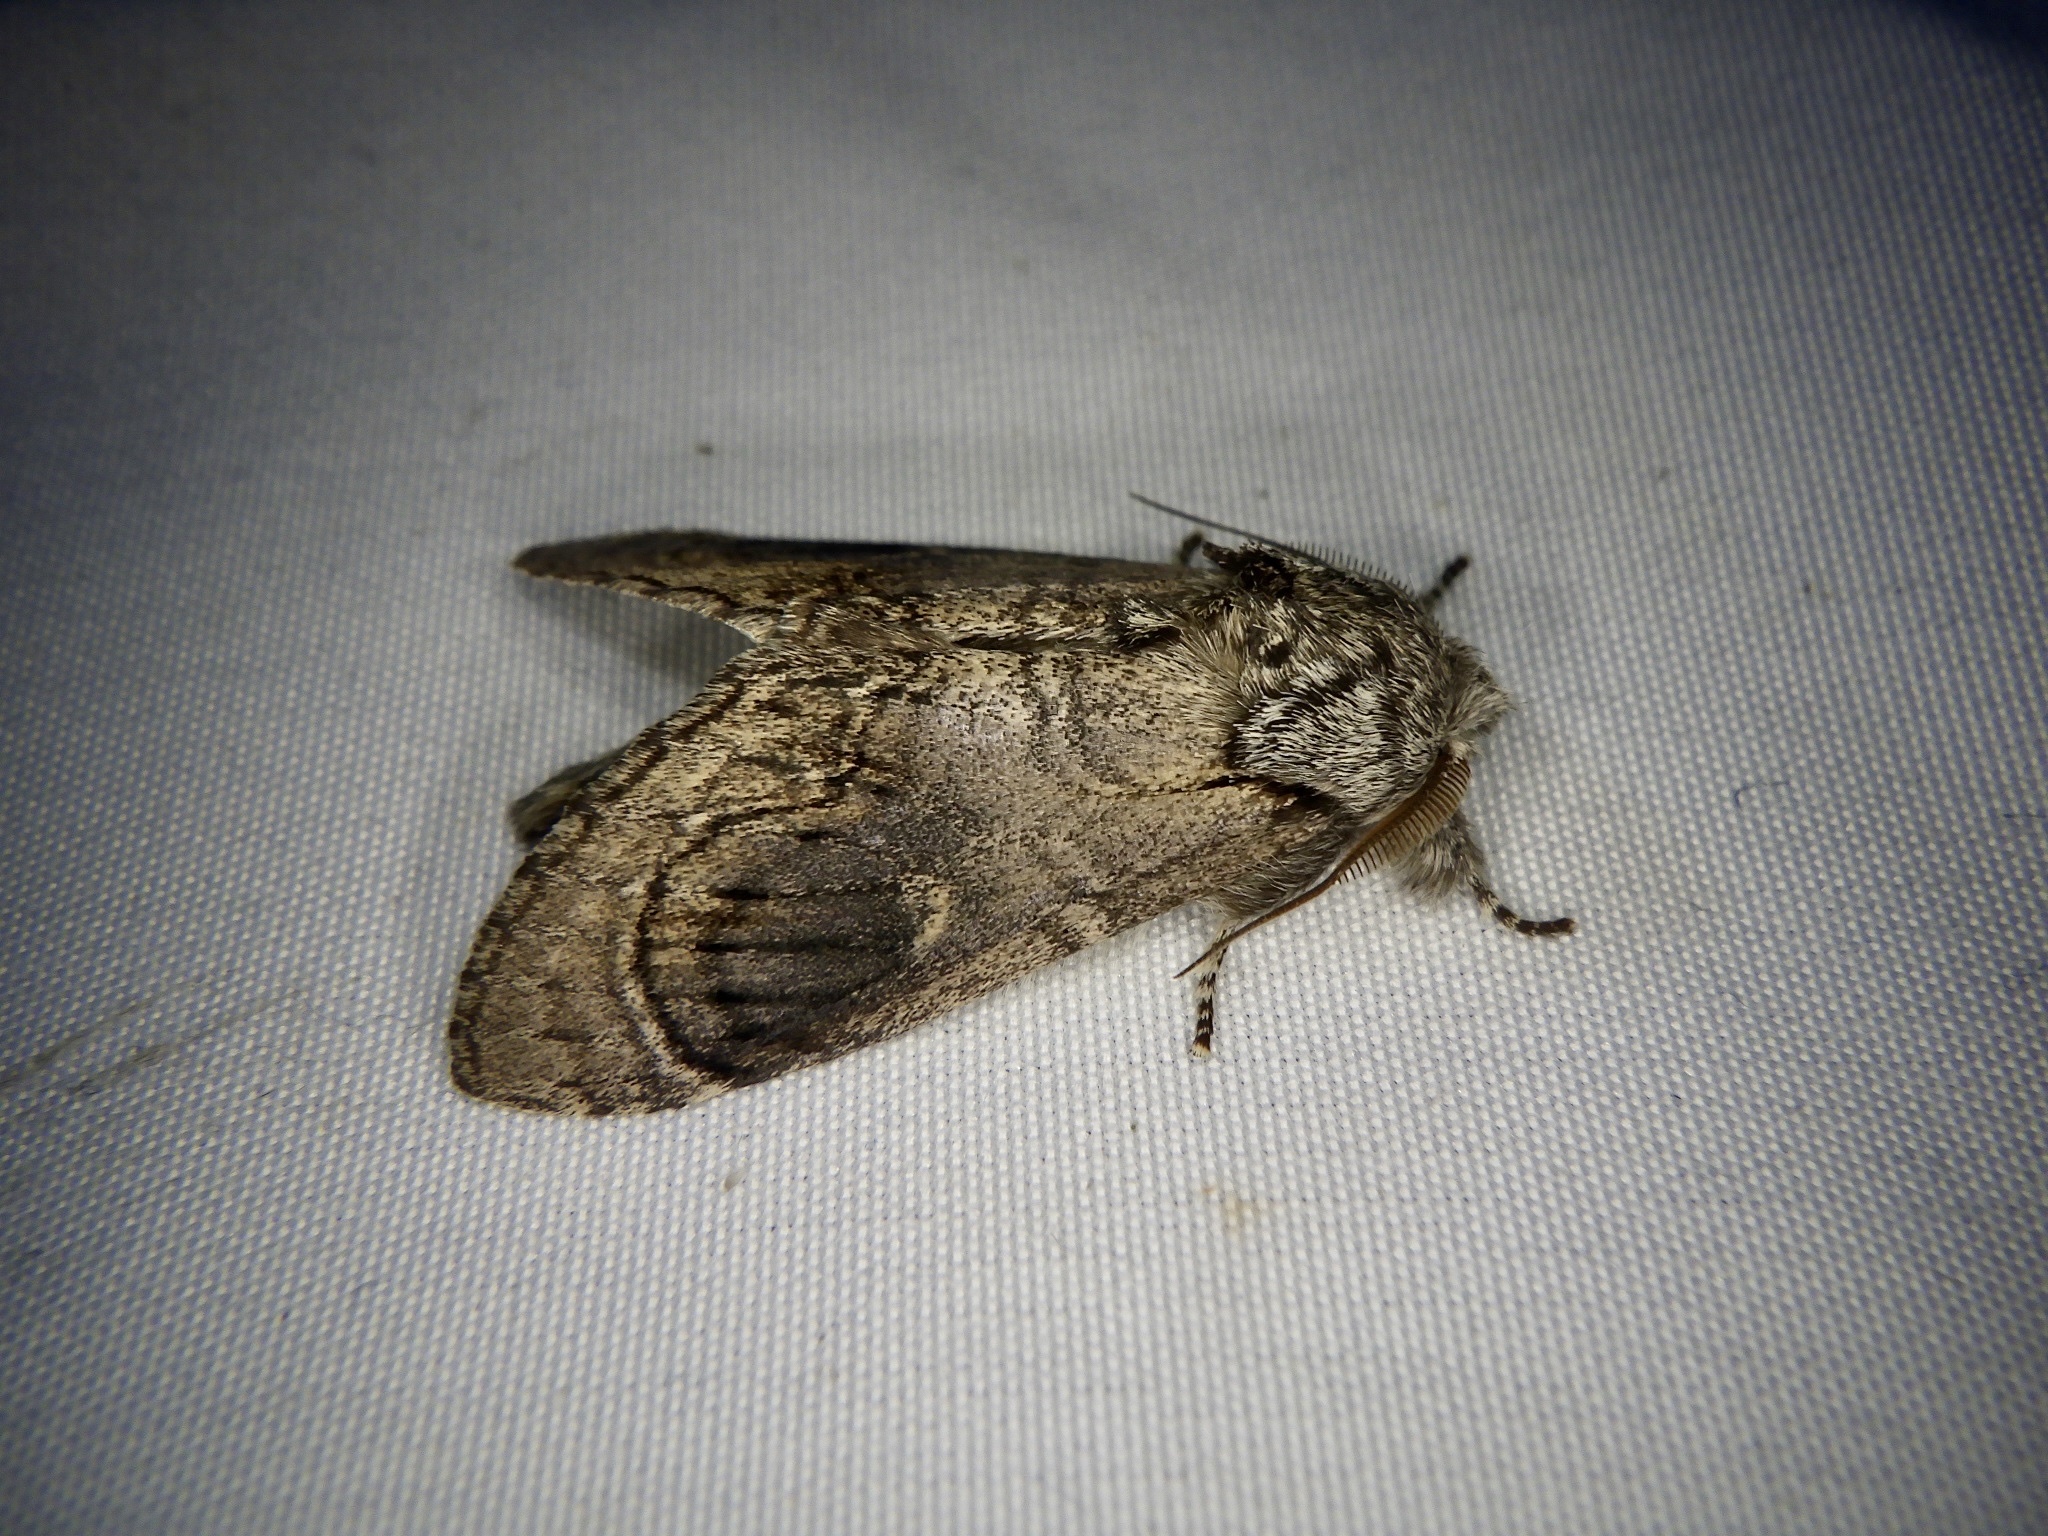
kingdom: Animalia
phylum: Arthropoda
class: Insecta
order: Lepidoptera
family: Notodontidae
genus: Fentonia
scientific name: Fentonia ocypete
